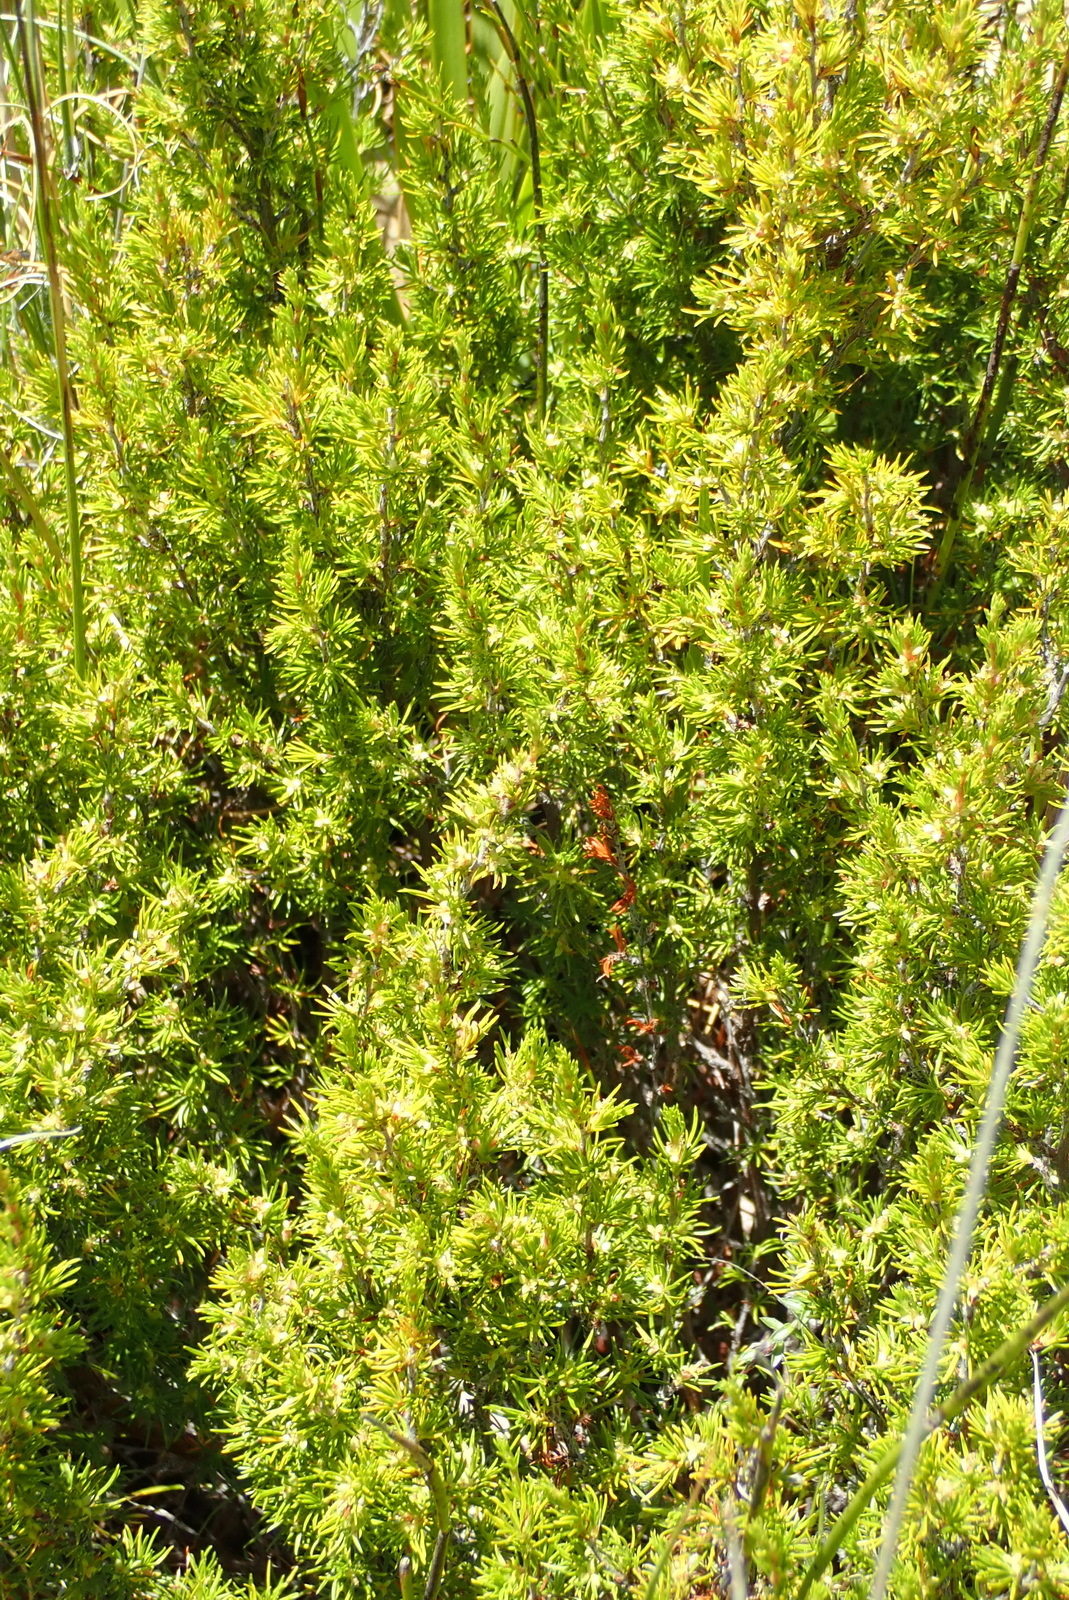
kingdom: Plantae
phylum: Tracheophyta
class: Magnoliopsida
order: Rosales
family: Rosaceae
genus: Cliffortia
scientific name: Cliffortia tuberculata
